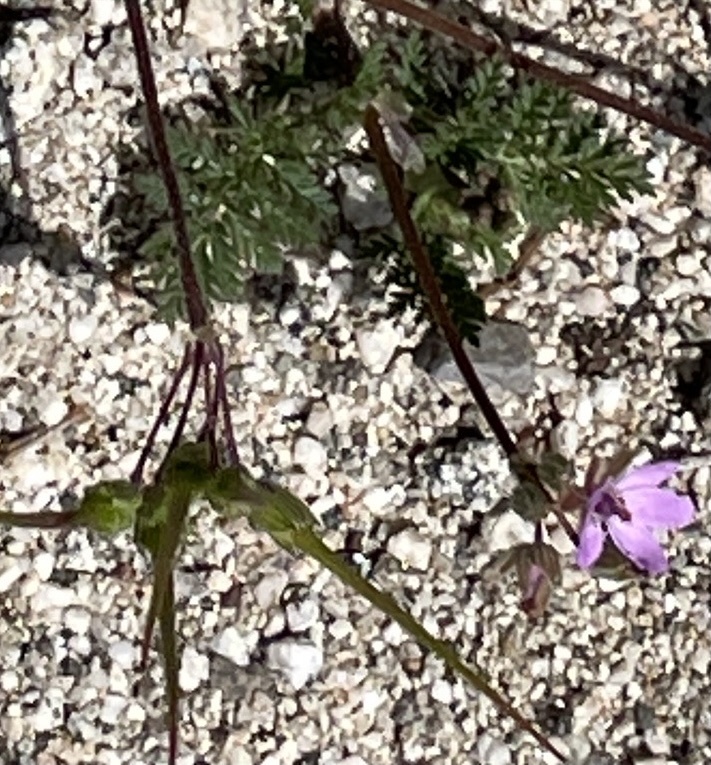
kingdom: Plantae
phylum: Tracheophyta
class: Magnoliopsida
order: Geraniales
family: Geraniaceae
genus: Erodium
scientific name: Erodium cicutarium
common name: Common stork's-bill
